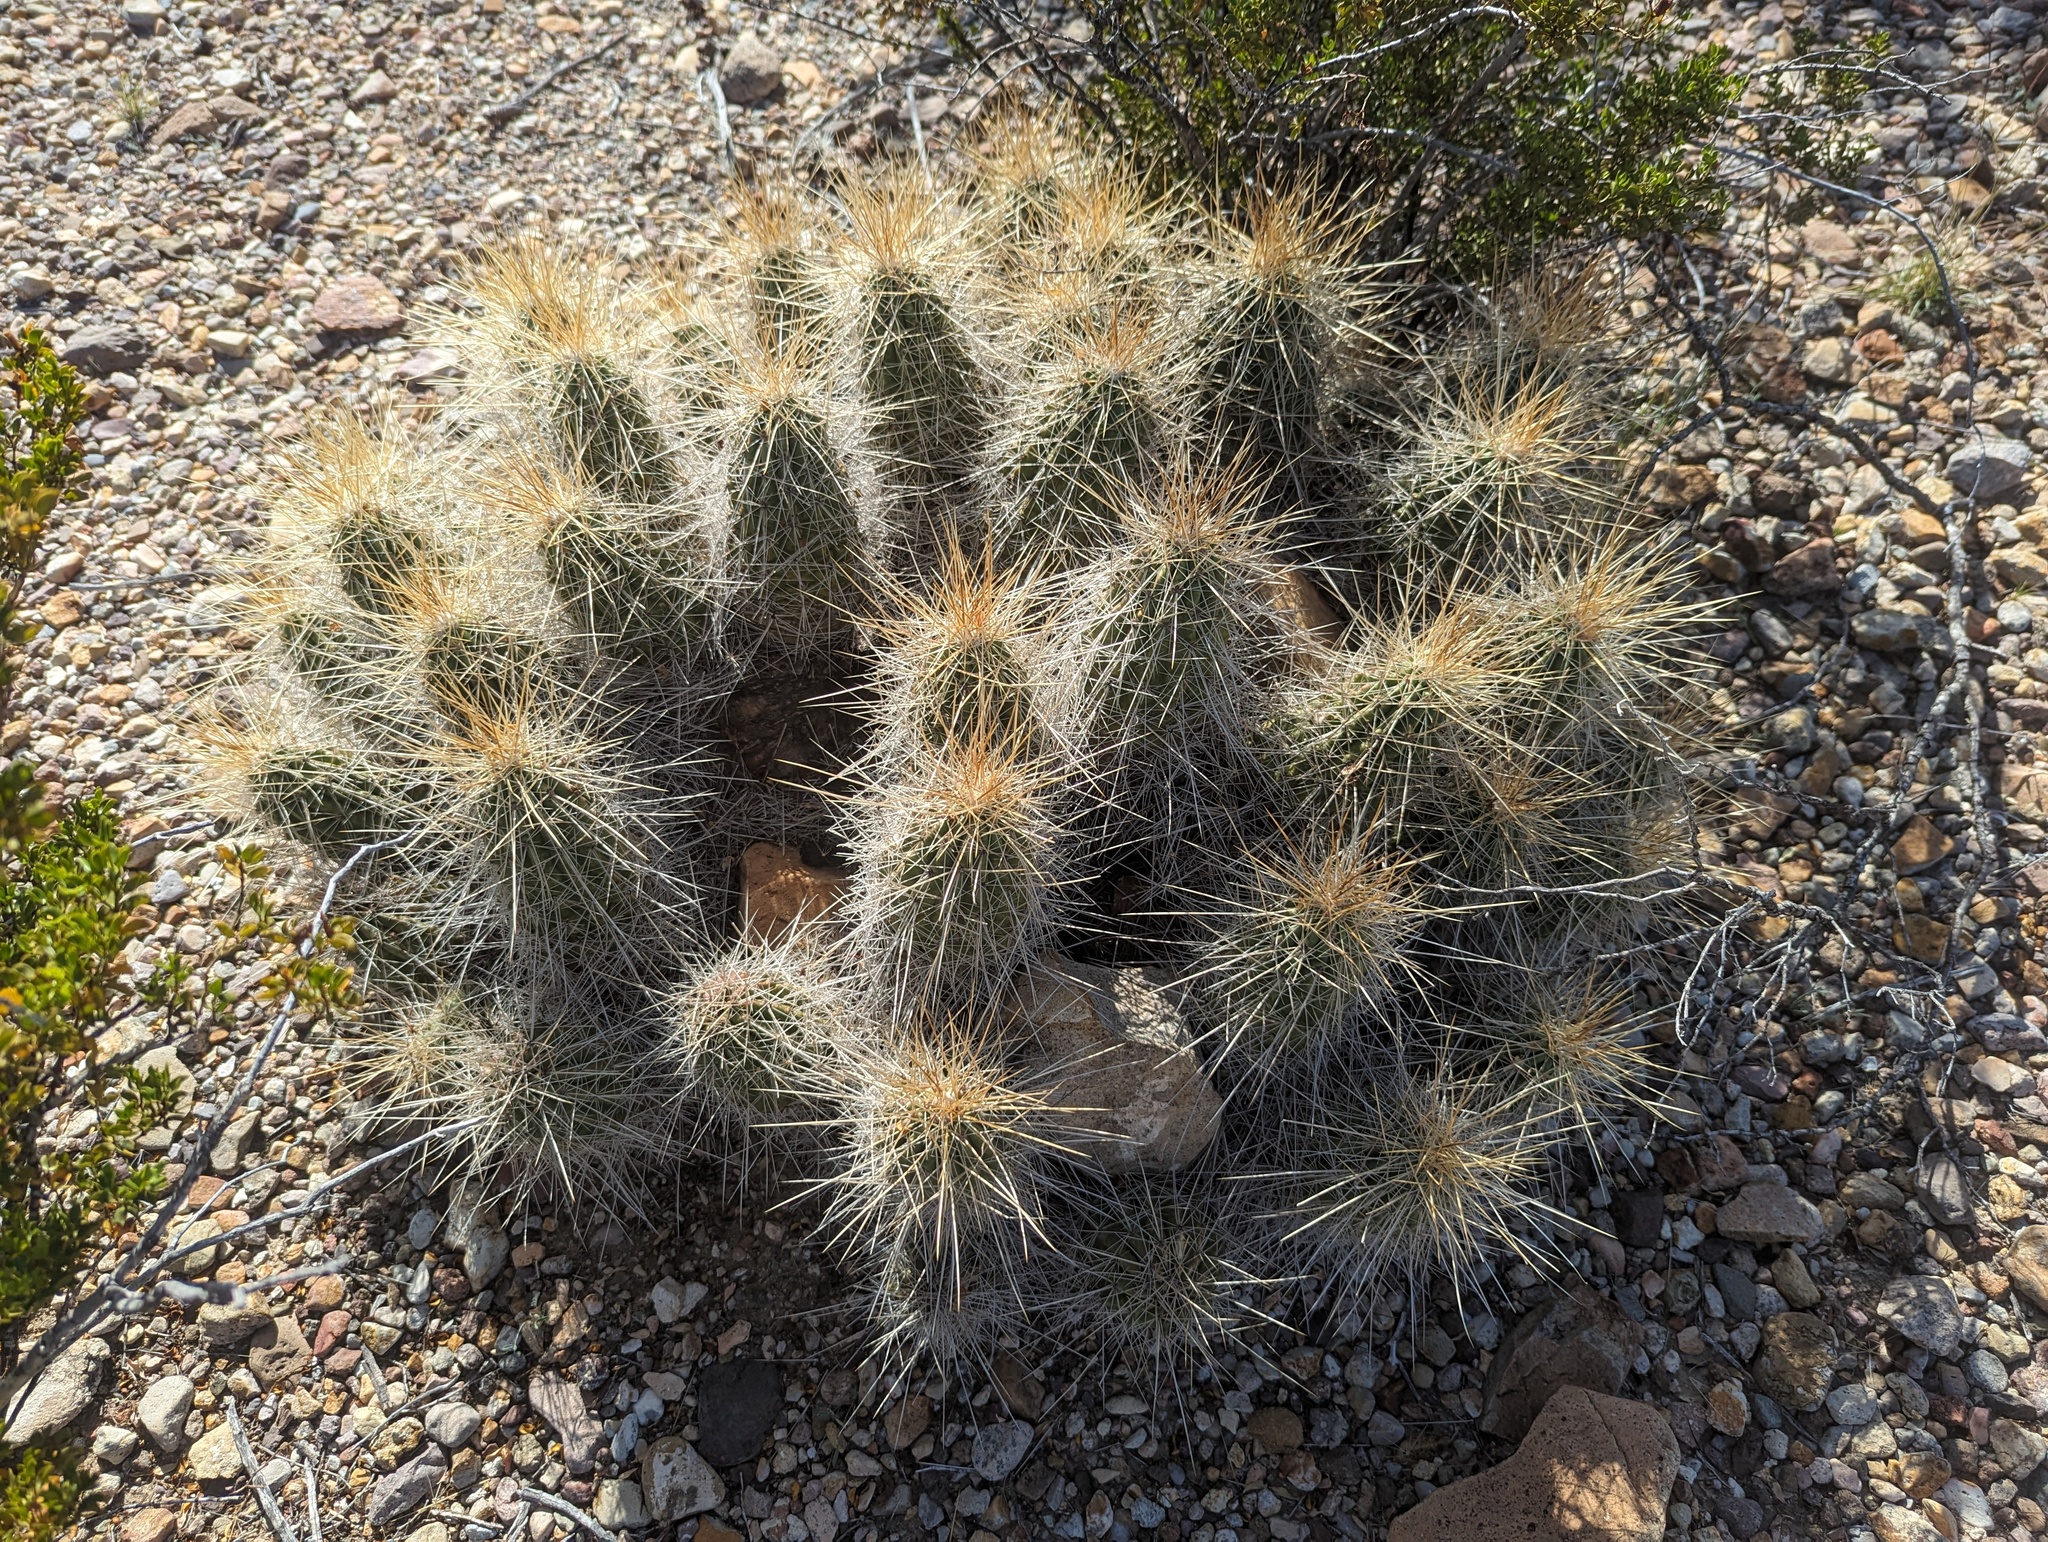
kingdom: Plantae
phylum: Tracheophyta
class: Magnoliopsida
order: Caryophyllales
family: Cactaceae
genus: Echinocereus
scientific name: Echinocereus stramineus
